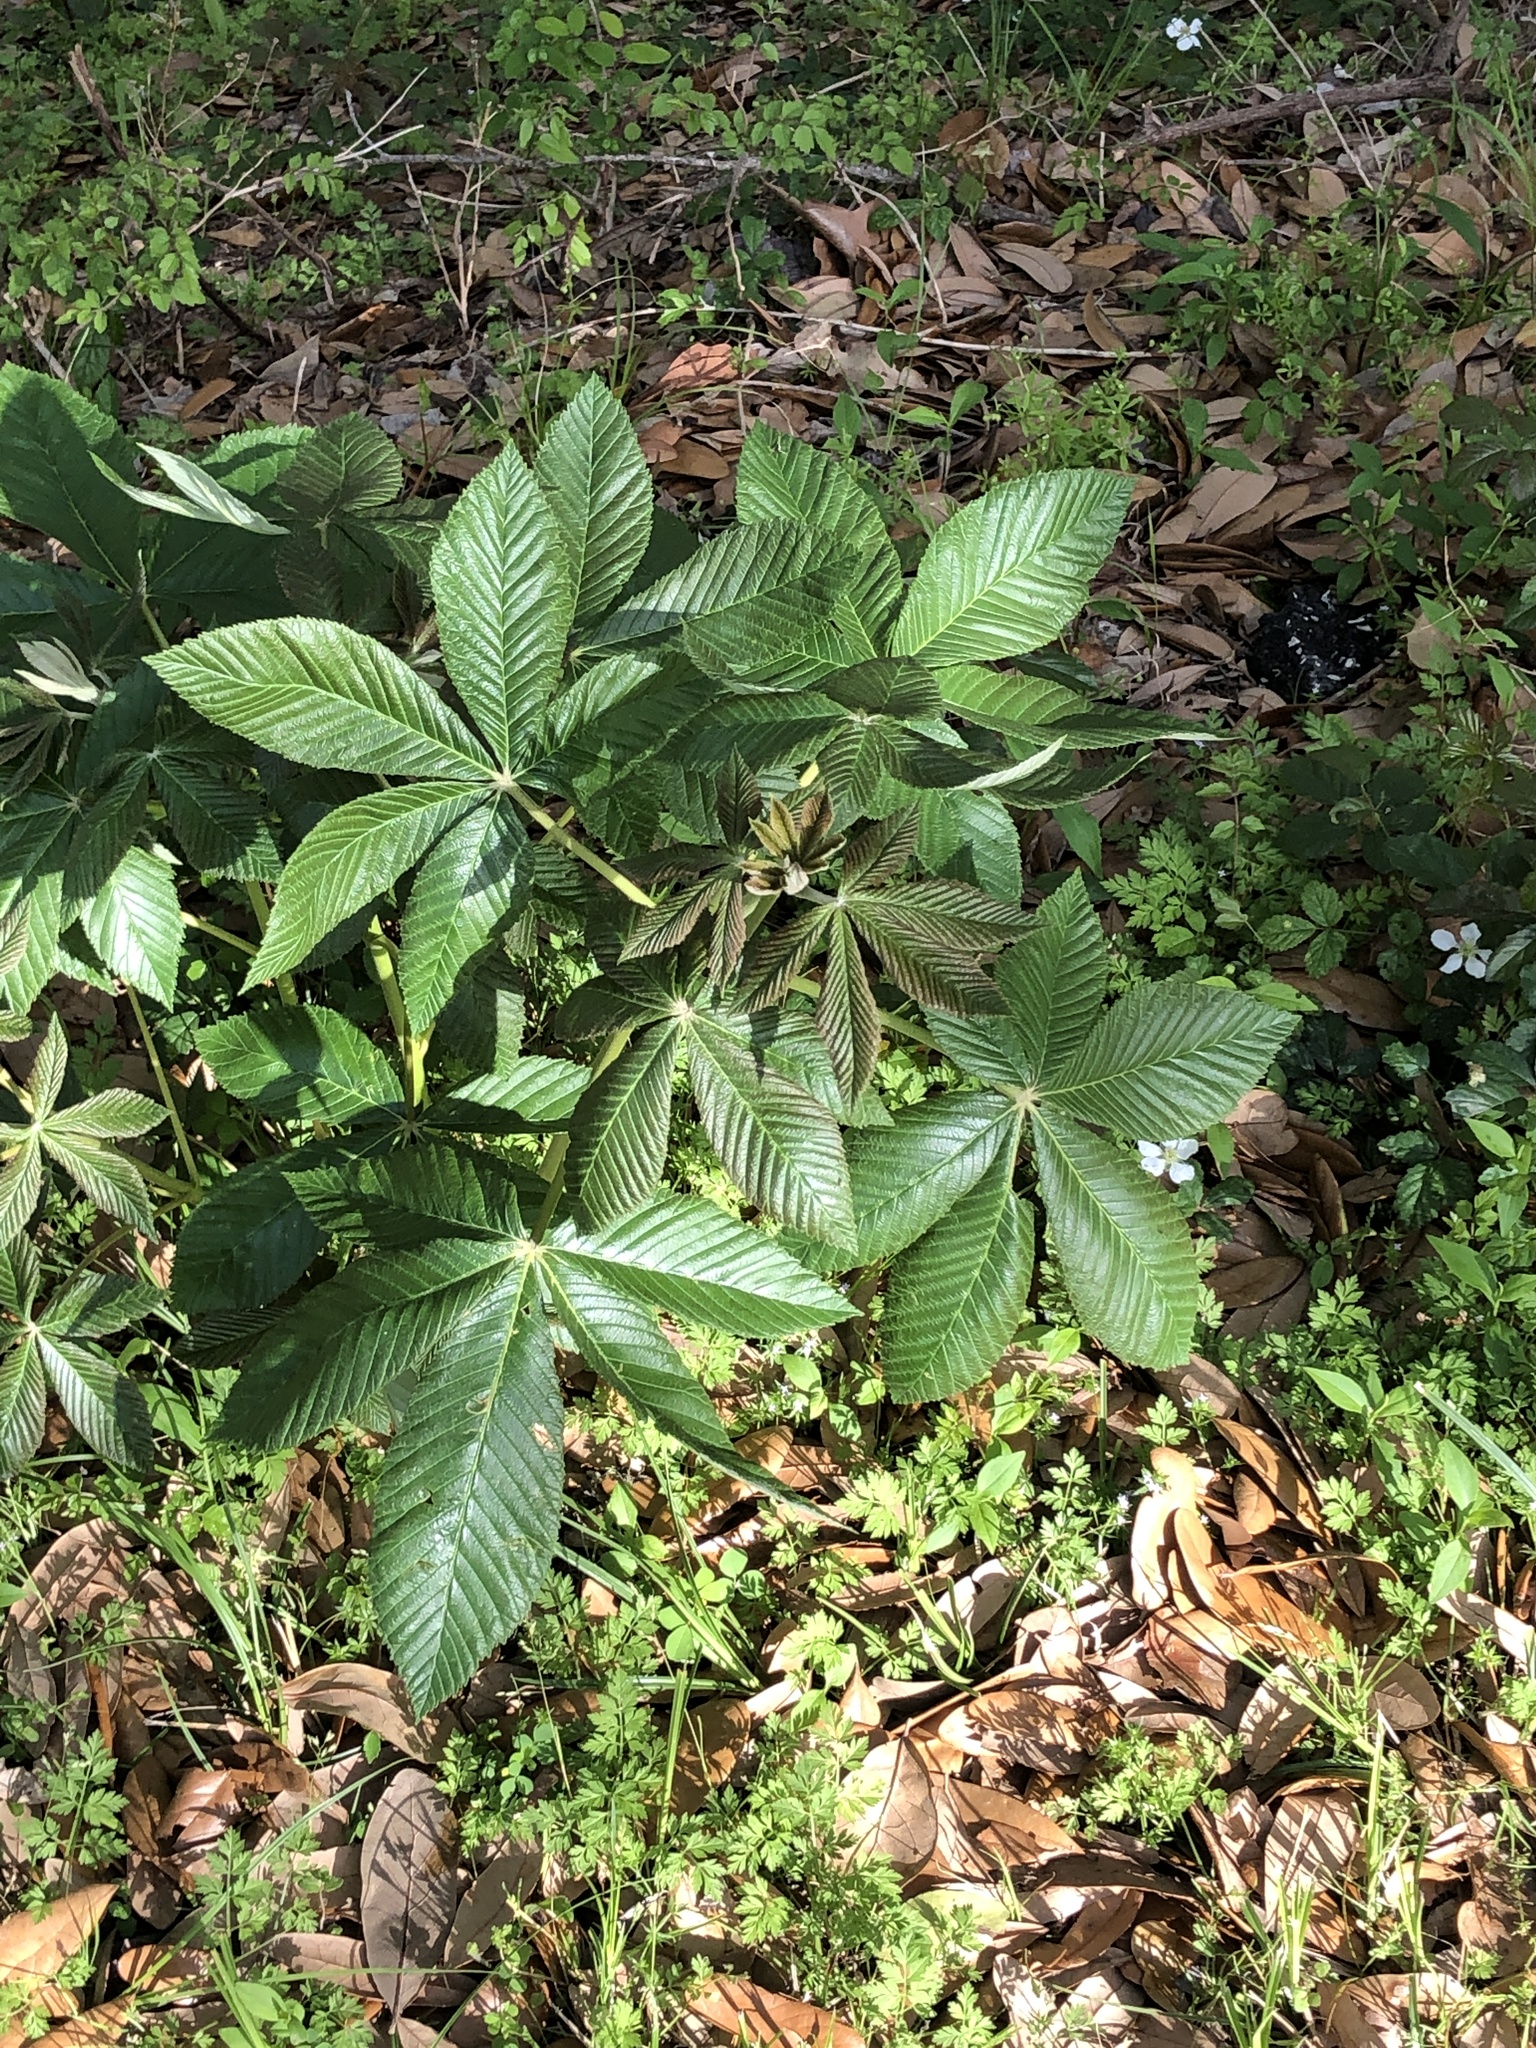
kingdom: Plantae
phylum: Tracheophyta
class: Magnoliopsida
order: Sapindales
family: Sapindaceae
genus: Aesculus
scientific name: Aesculus pavia
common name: Red buckeye
